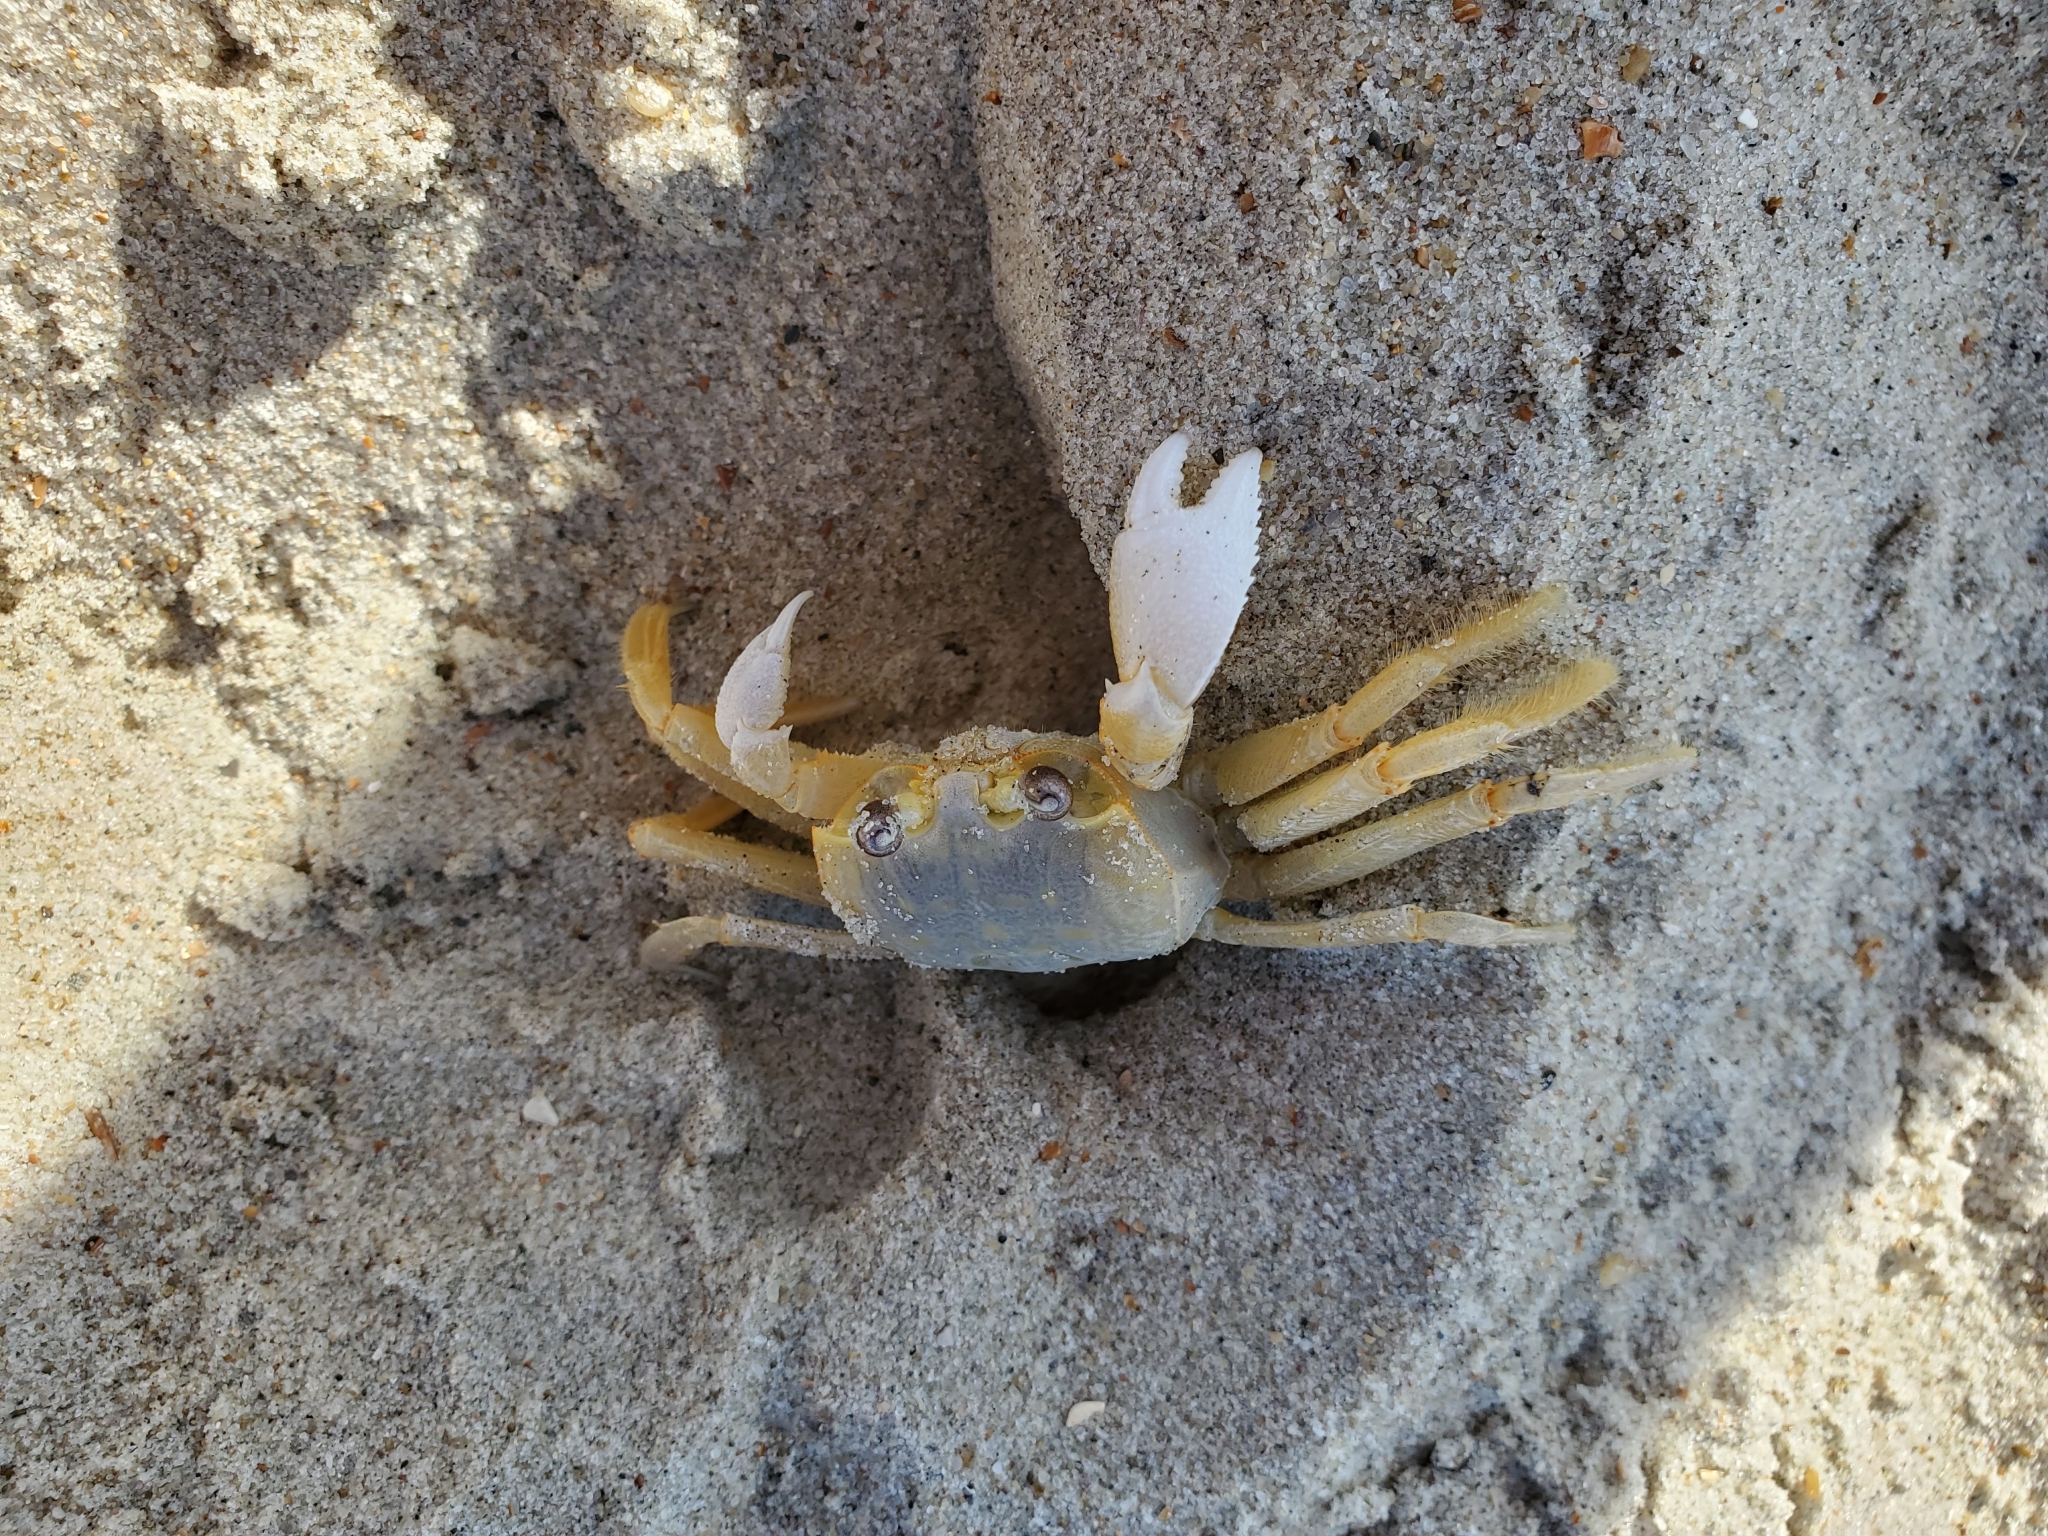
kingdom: Animalia
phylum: Arthropoda
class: Malacostraca
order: Decapoda
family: Ocypodidae
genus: Ocypode
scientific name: Ocypode quadrata
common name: Ghost crab
